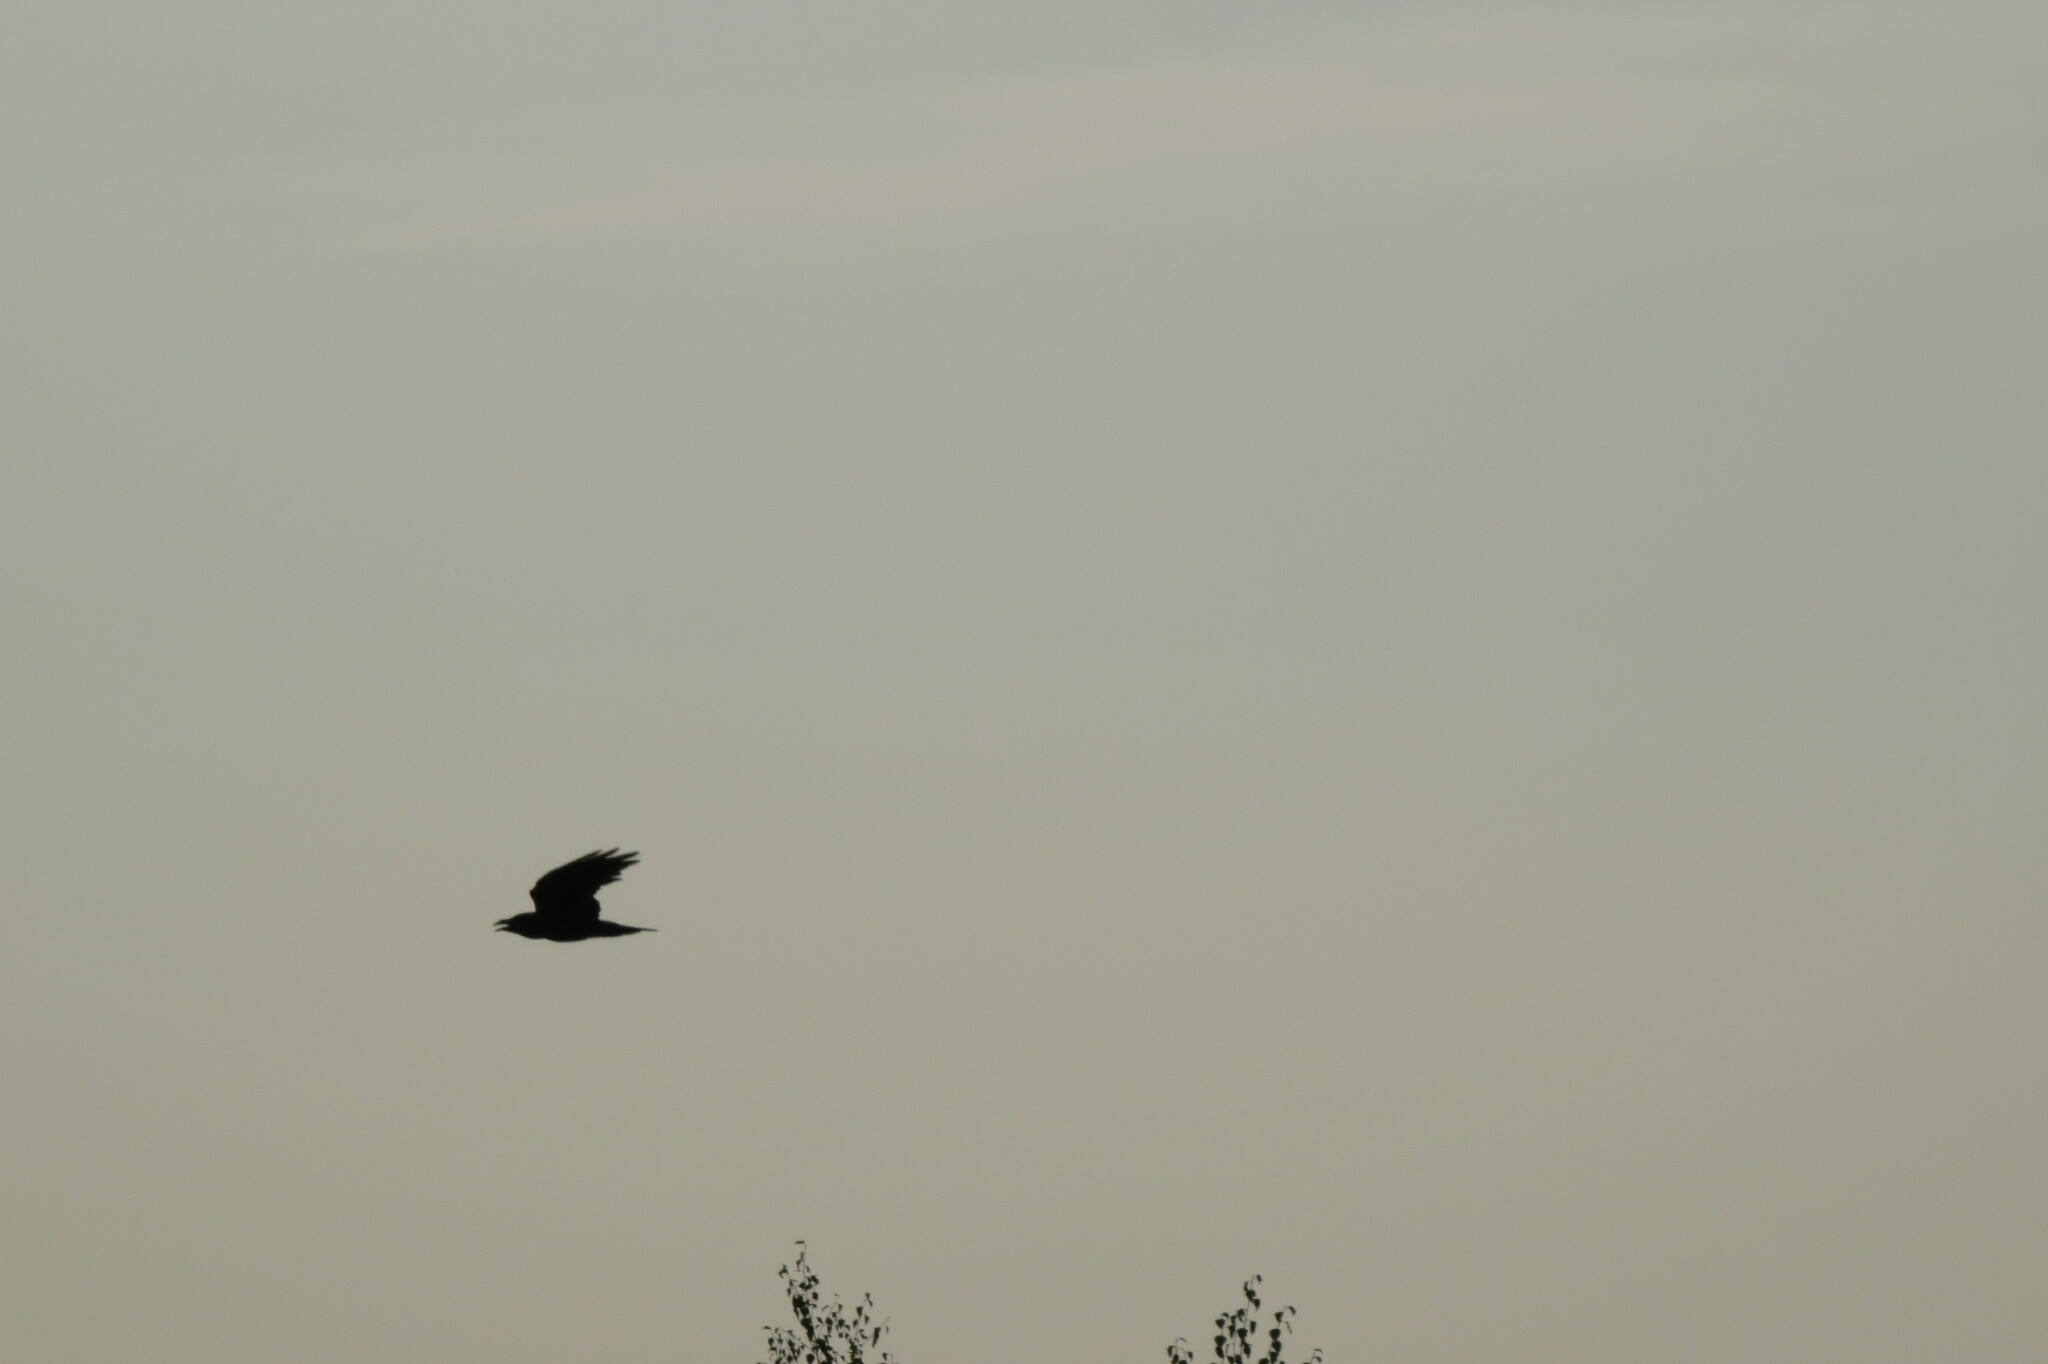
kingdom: Animalia
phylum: Chordata
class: Aves
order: Passeriformes
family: Corvidae
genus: Corvus
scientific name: Corvus corax
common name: Common raven
